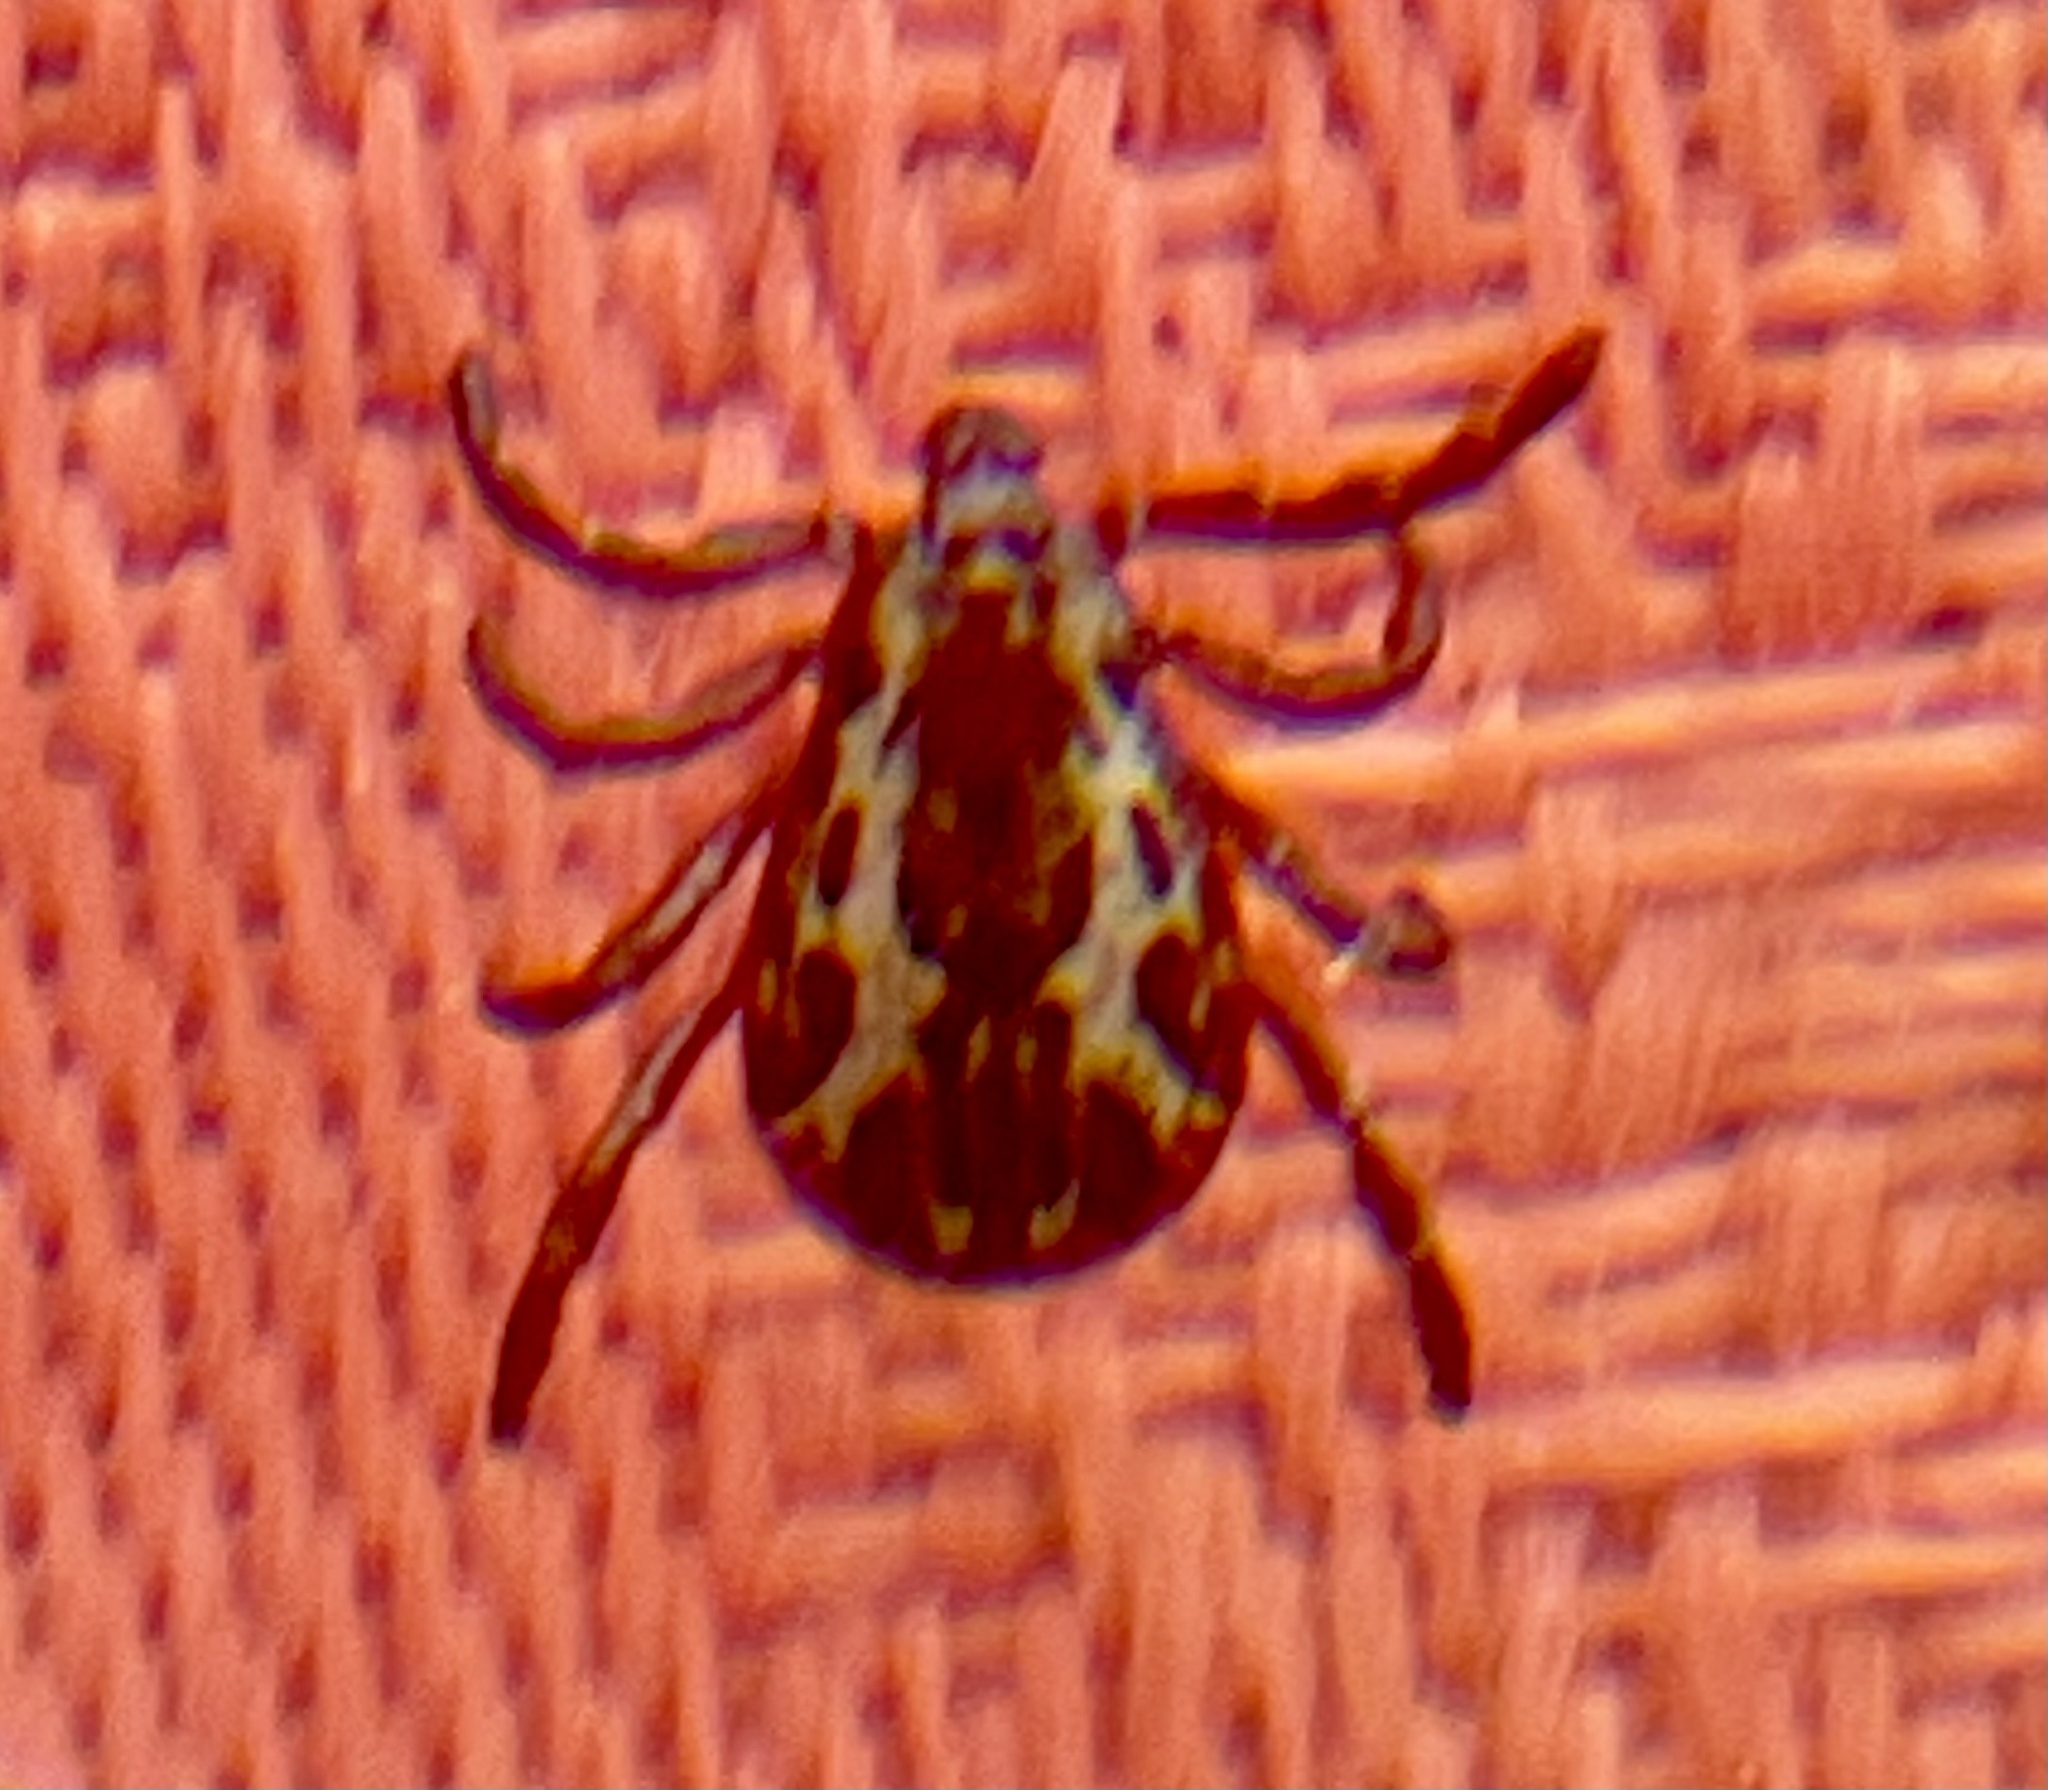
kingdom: Animalia
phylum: Arthropoda
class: Arachnida
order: Ixodida
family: Ixodidae
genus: Dermacentor
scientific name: Dermacentor variabilis
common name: American dog tick
